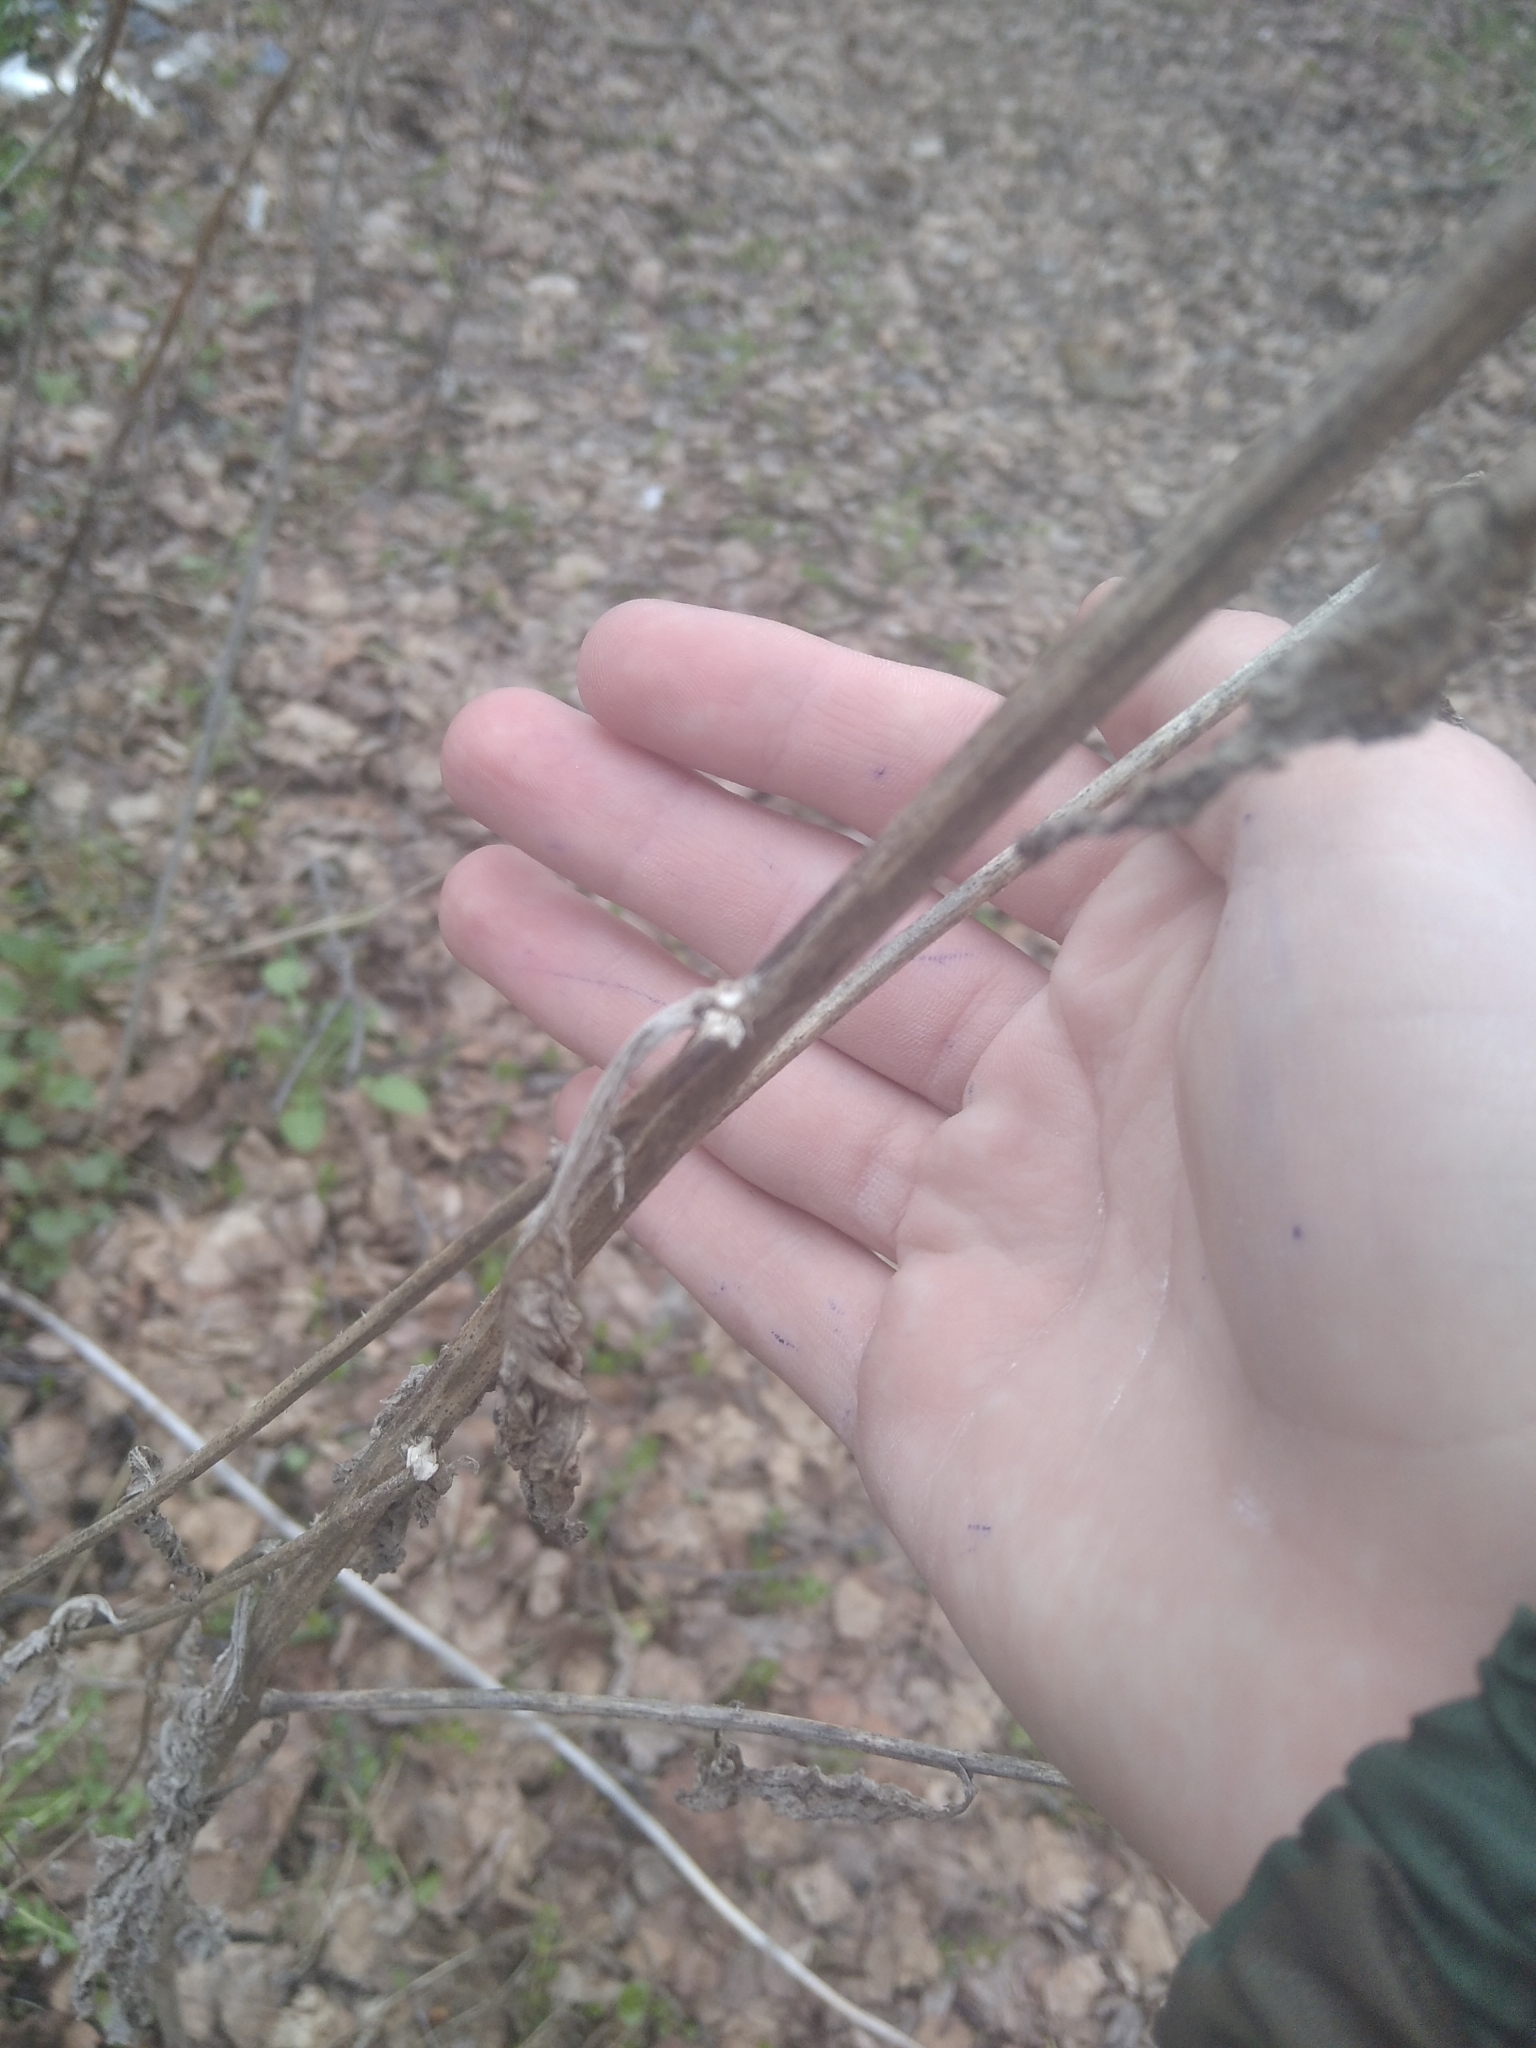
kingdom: Plantae
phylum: Tracheophyta
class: Magnoliopsida
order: Asterales
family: Asteraceae
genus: Lapsana
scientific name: Lapsana communis
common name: Nipplewort
